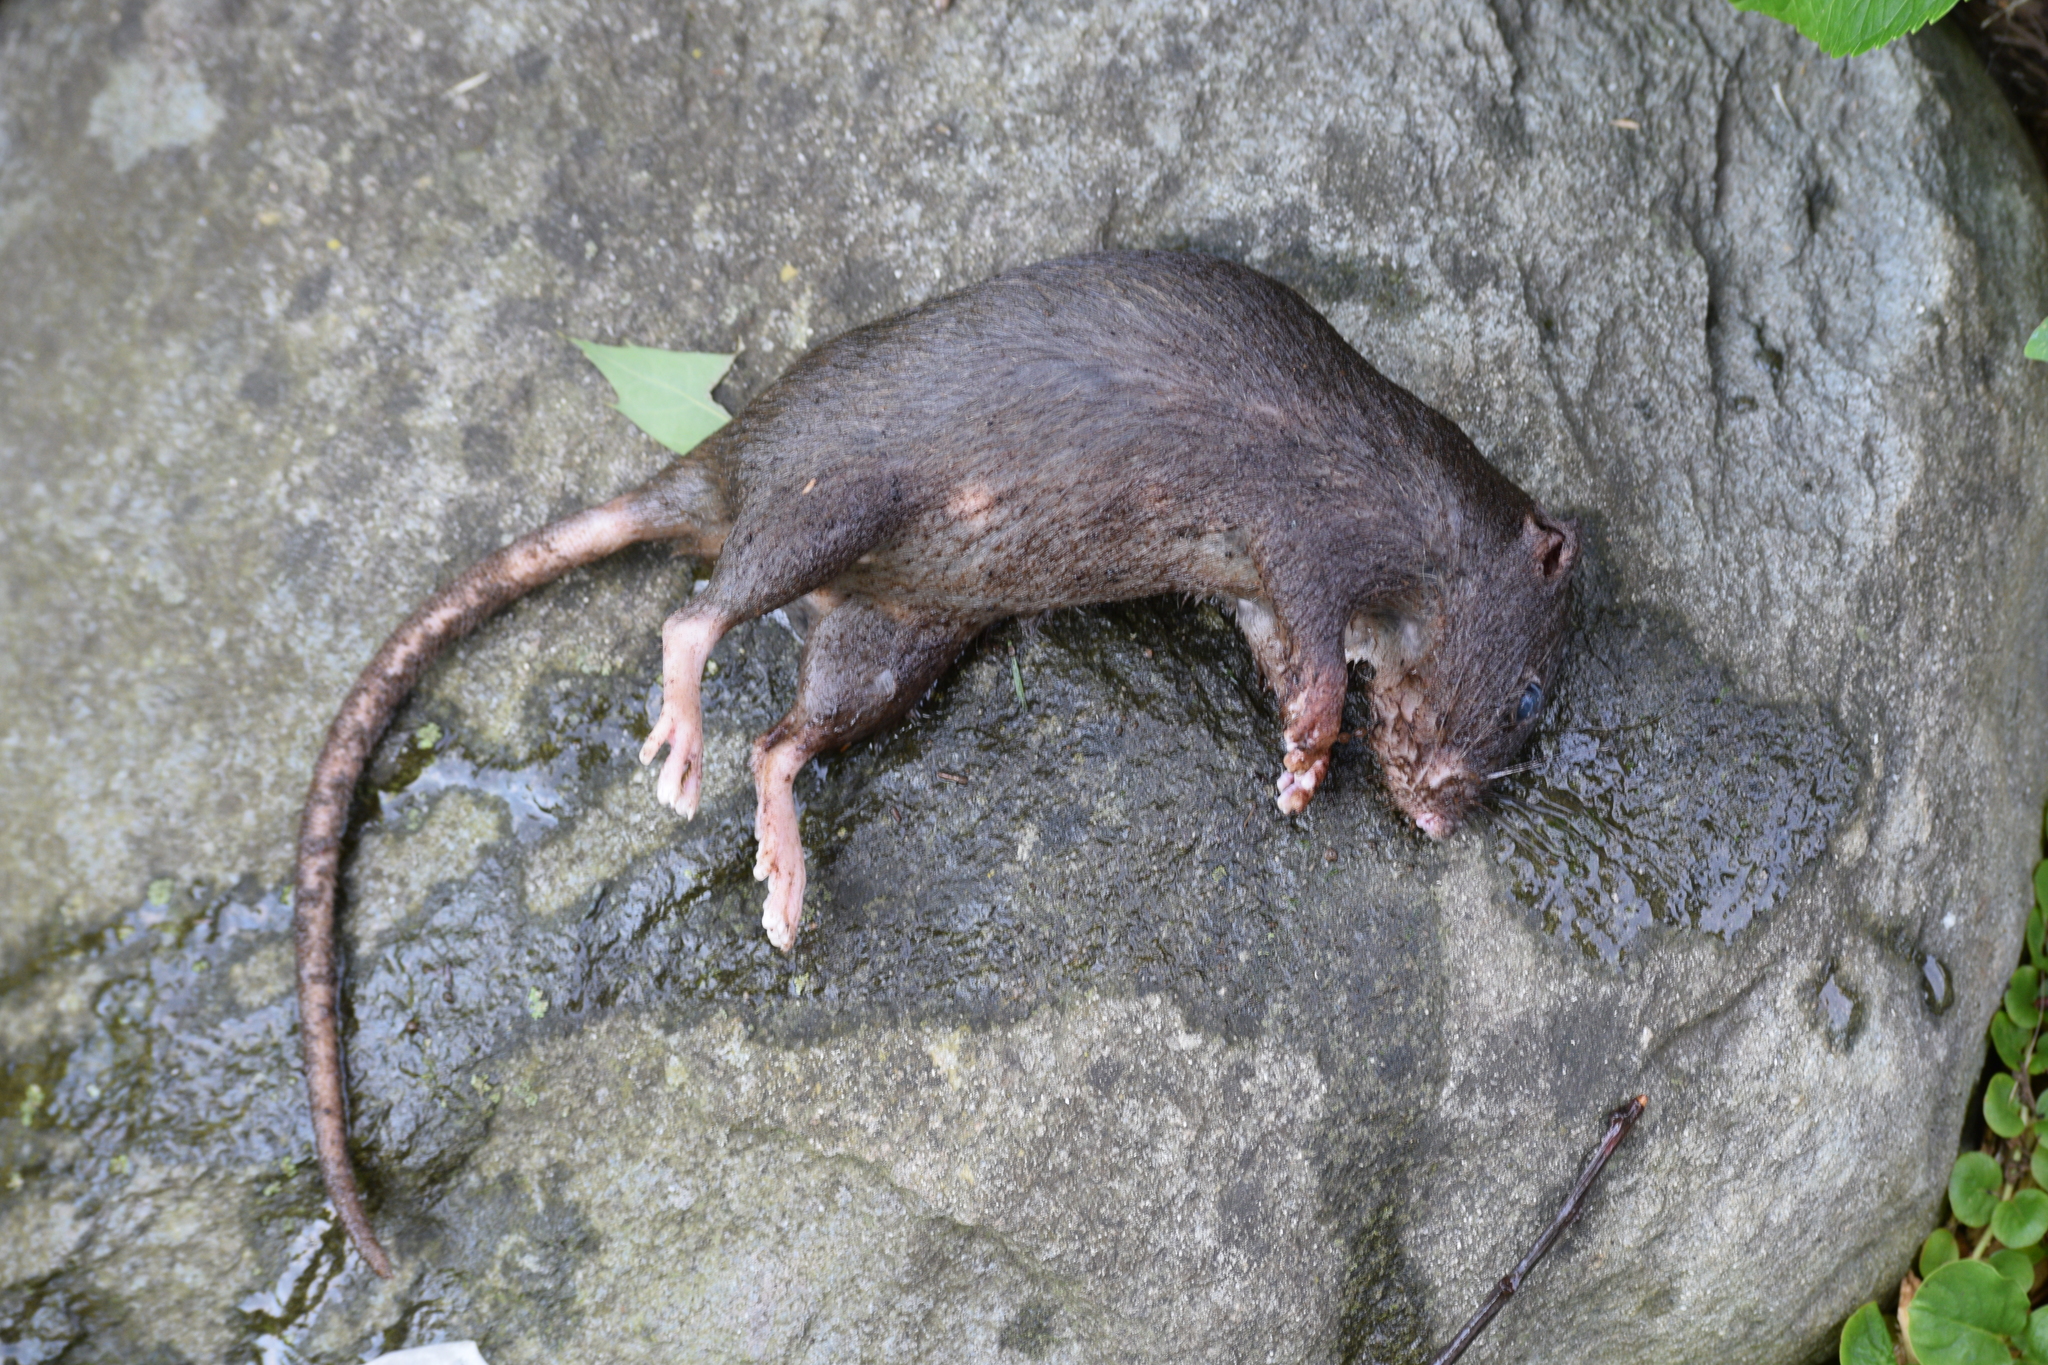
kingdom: Animalia
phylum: Chordata
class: Mammalia
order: Rodentia
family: Muridae
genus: Rattus
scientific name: Rattus norvegicus
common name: Brown rat
